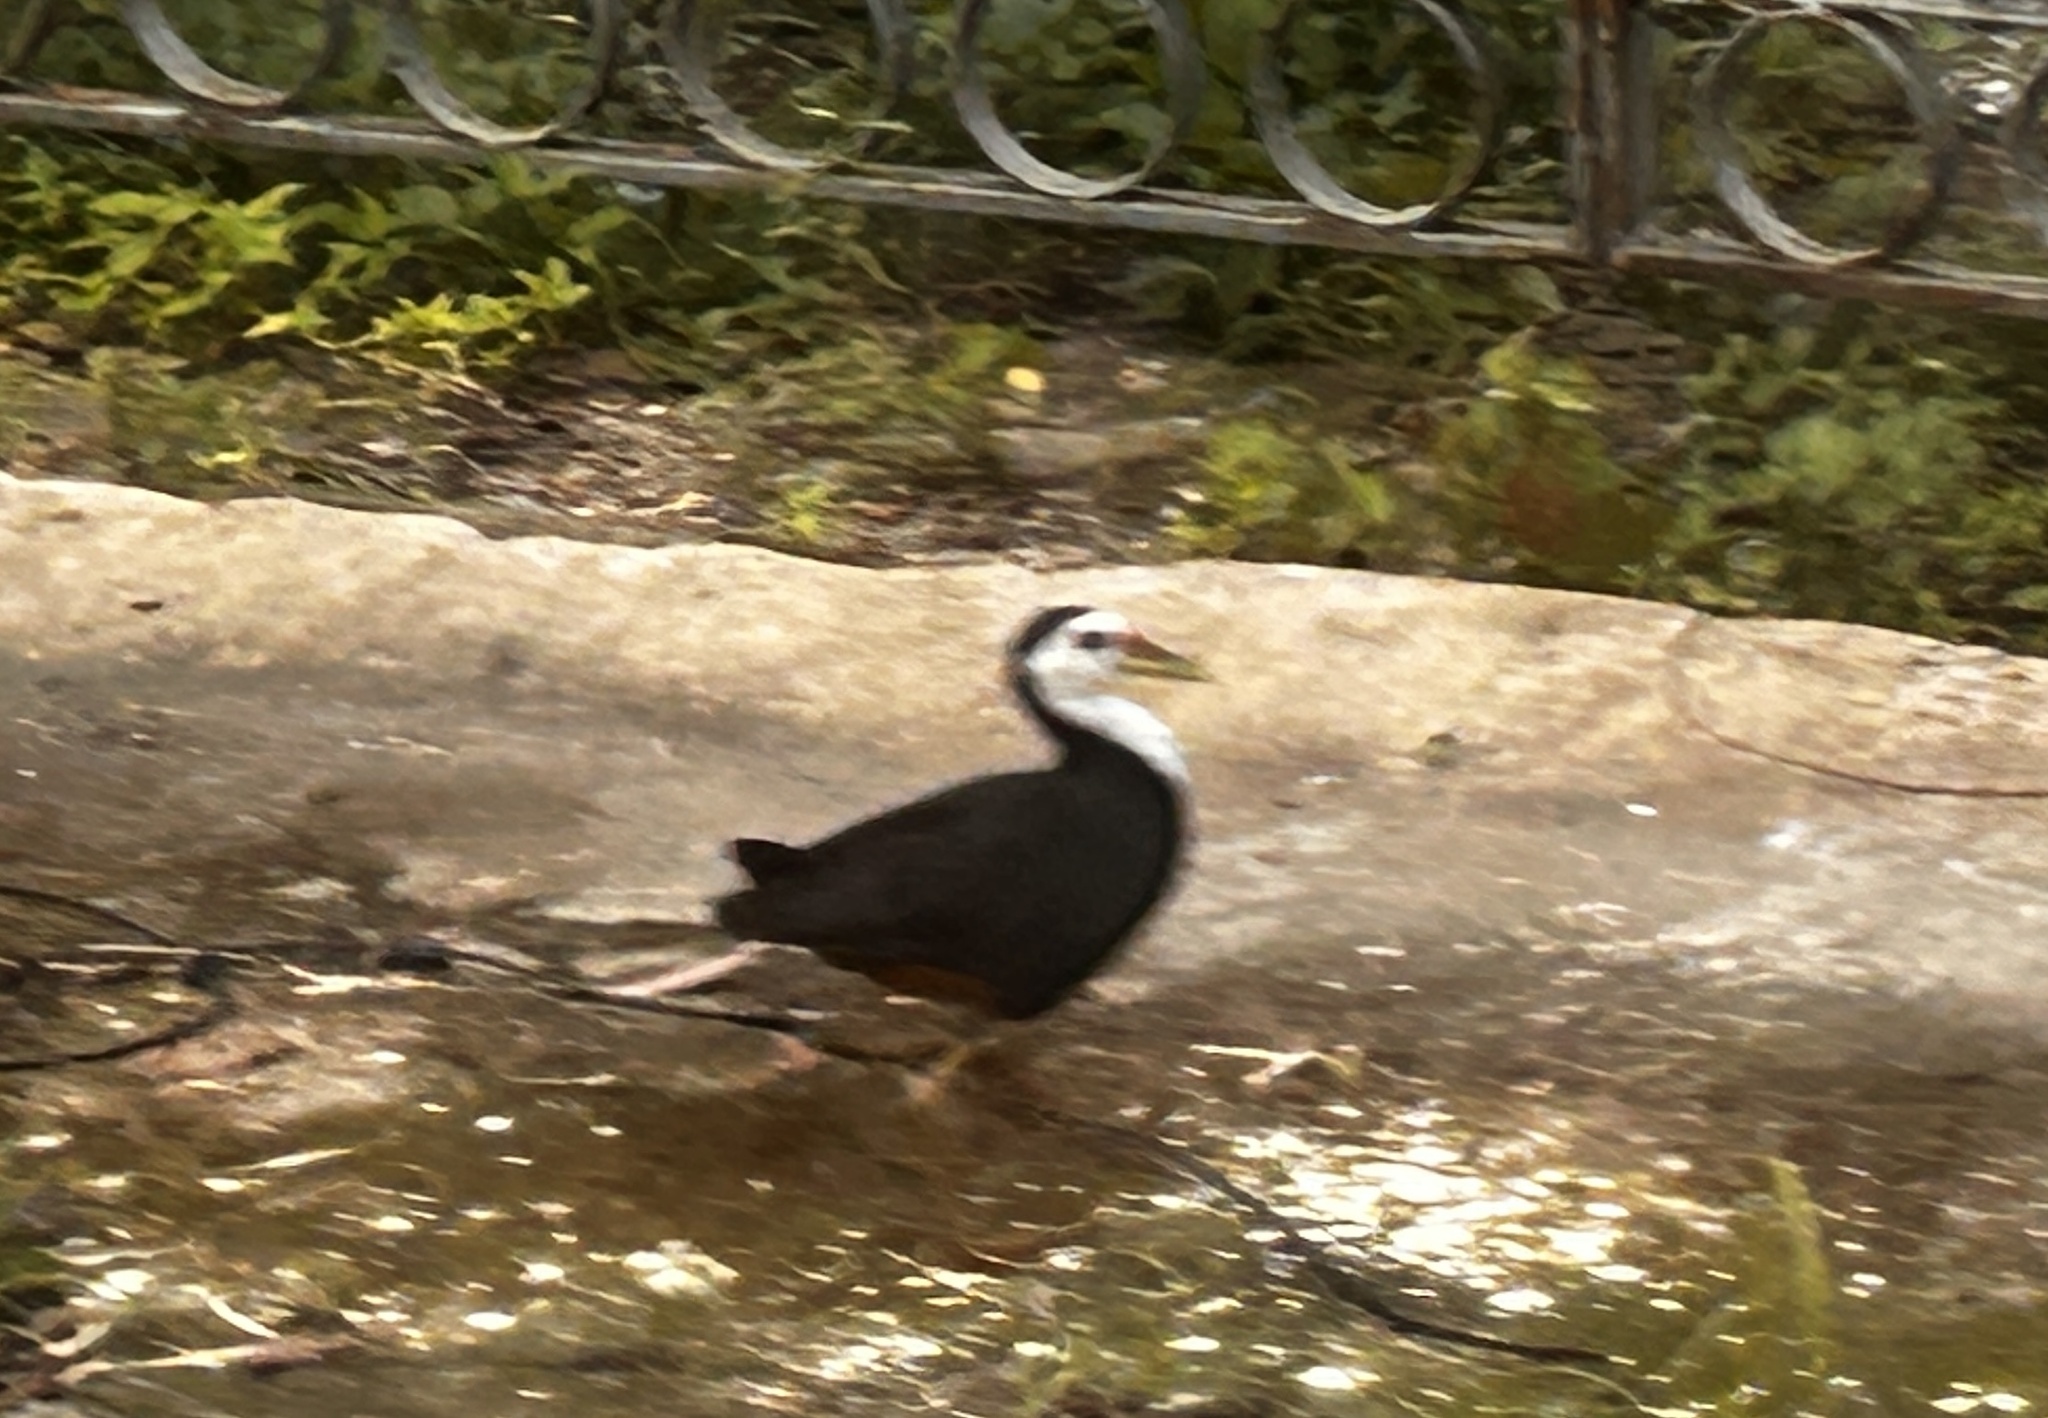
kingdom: Animalia
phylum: Chordata
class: Aves
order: Gruiformes
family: Rallidae
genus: Amaurornis
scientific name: Amaurornis phoenicurus
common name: White-breasted waterhen
